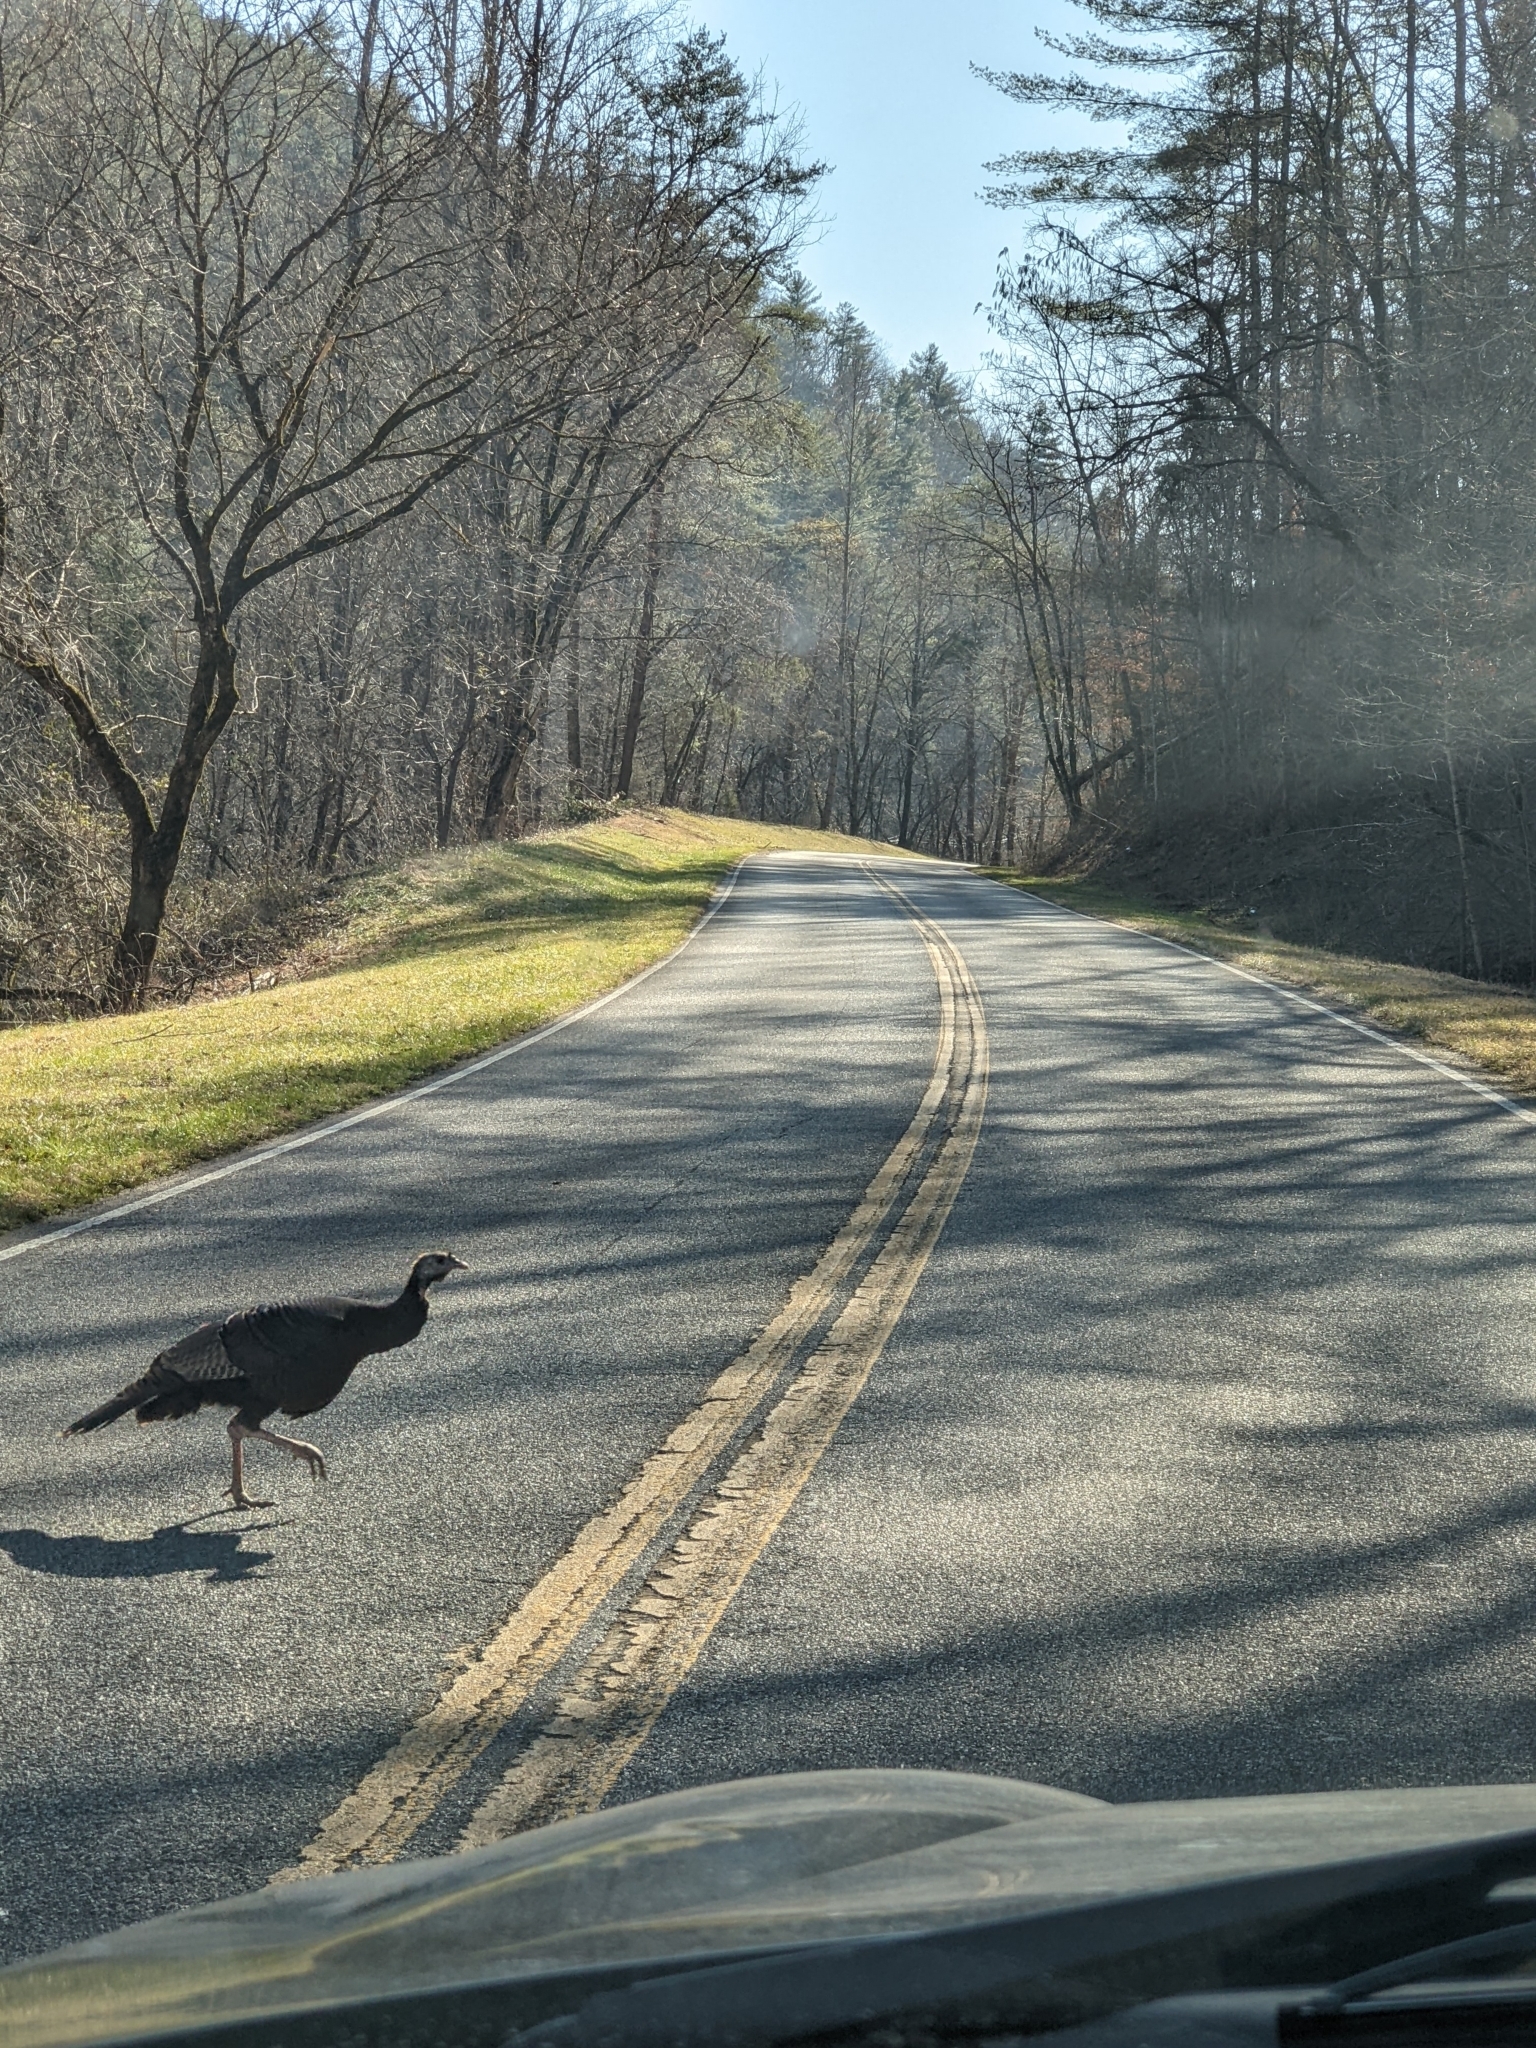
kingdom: Animalia
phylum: Chordata
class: Aves
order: Galliformes
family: Phasianidae
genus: Meleagris
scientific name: Meleagris gallopavo
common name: Wild turkey
